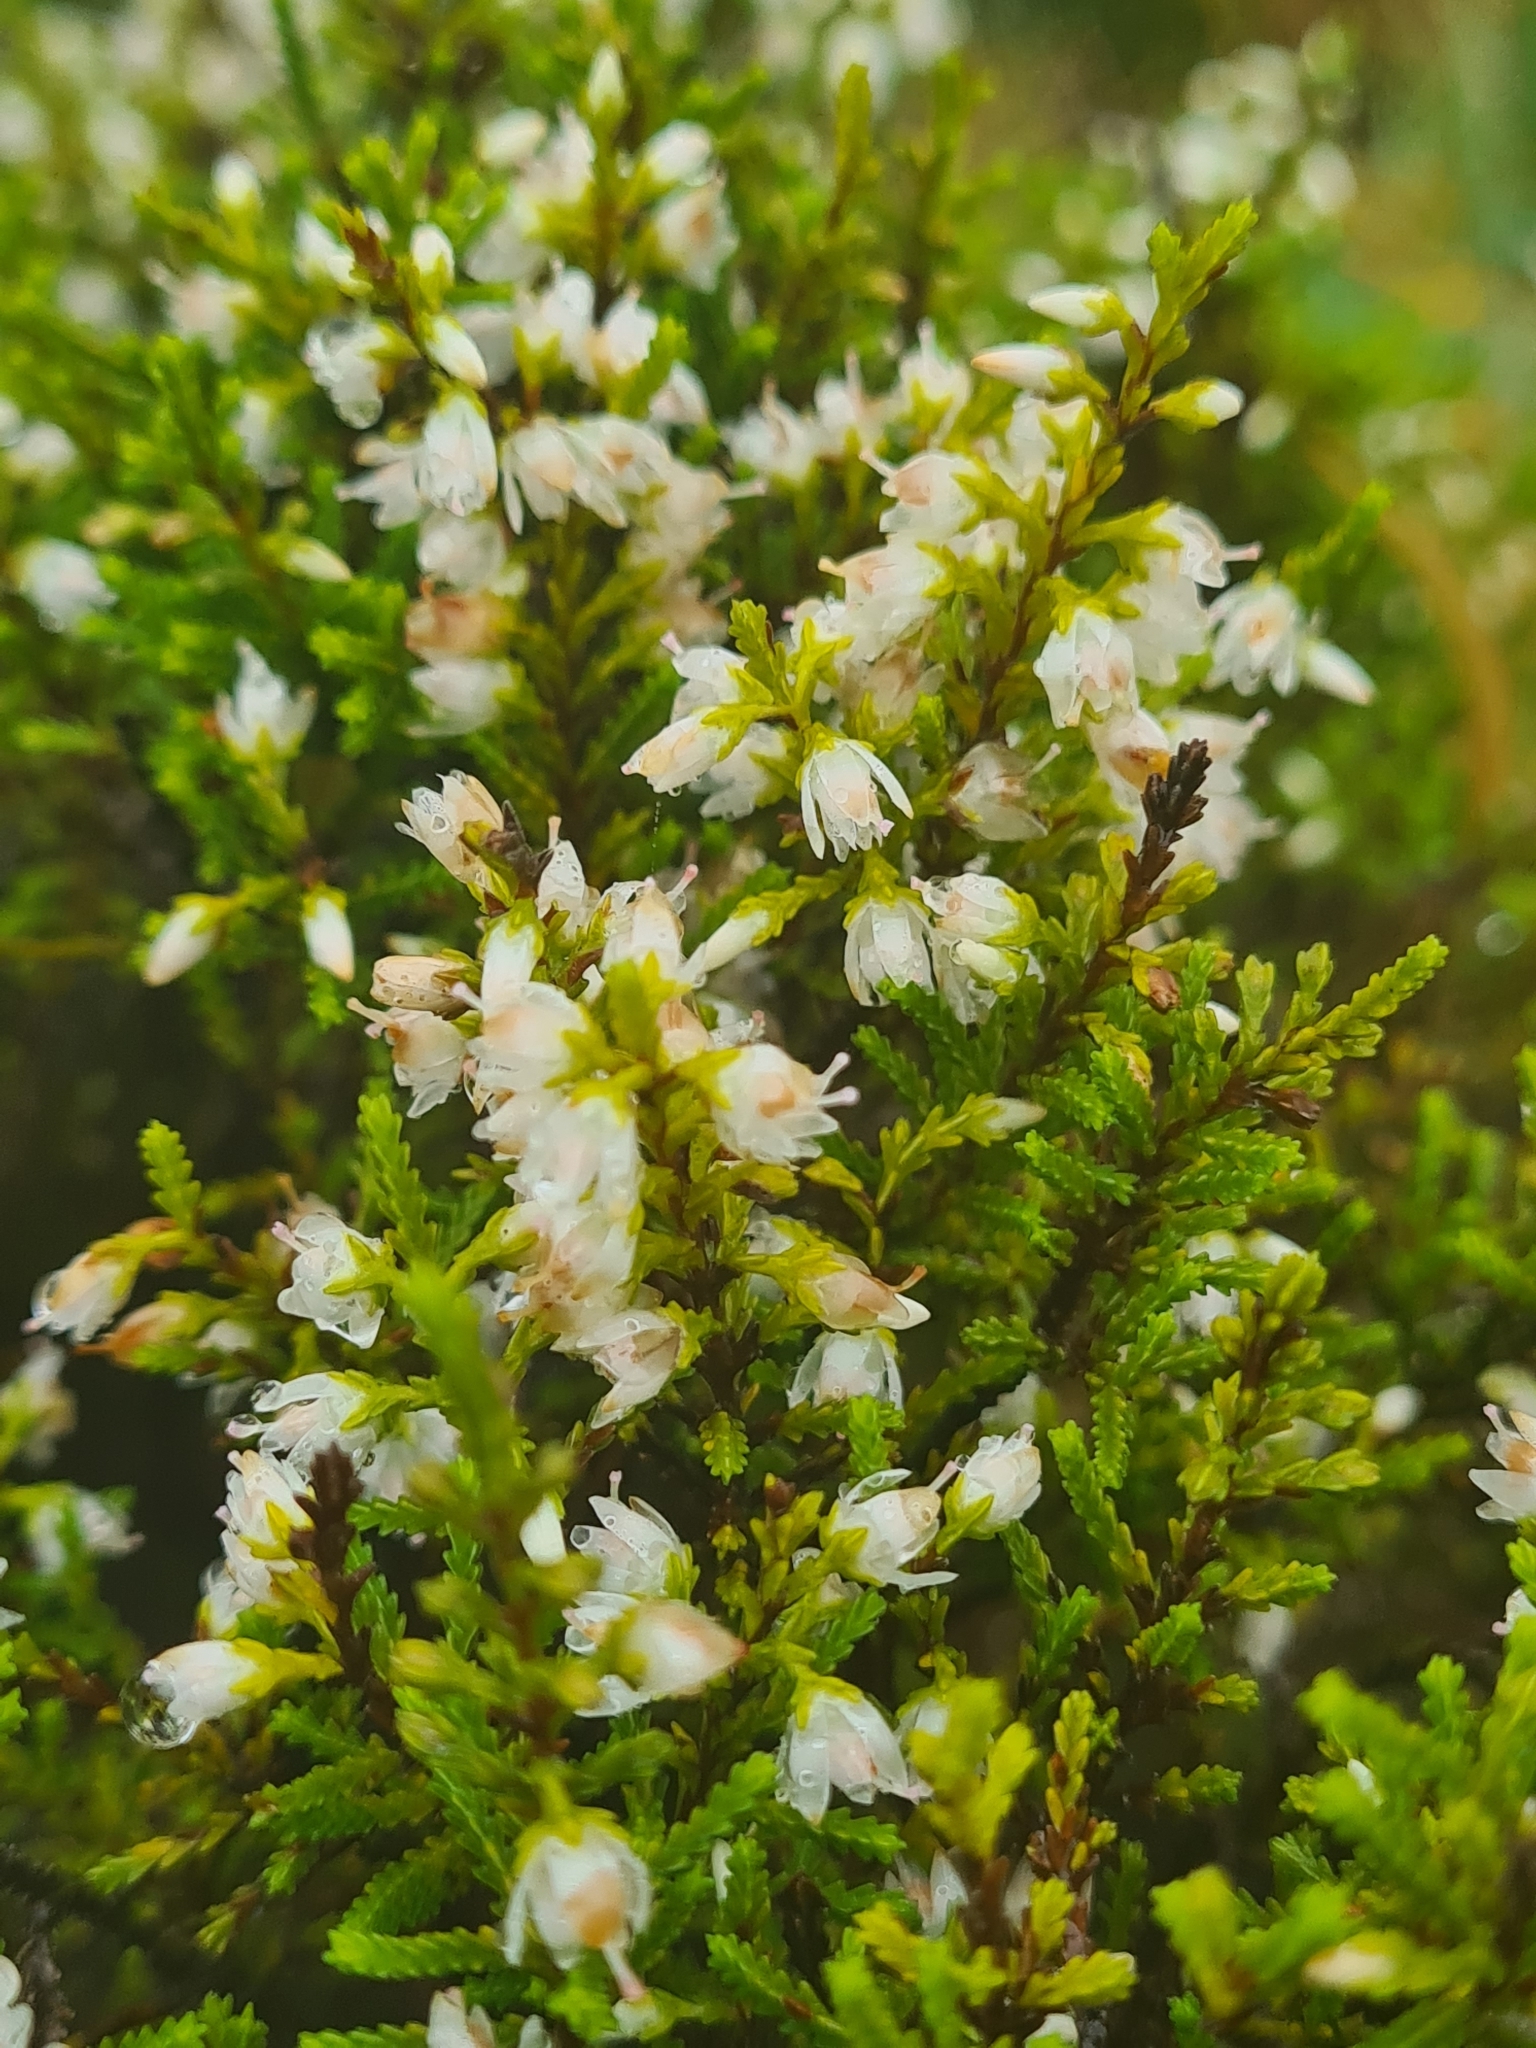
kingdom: Plantae
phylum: Tracheophyta
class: Magnoliopsida
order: Ericales
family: Ericaceae
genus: Calluna
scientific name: Calluna vulgaris
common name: Heather
